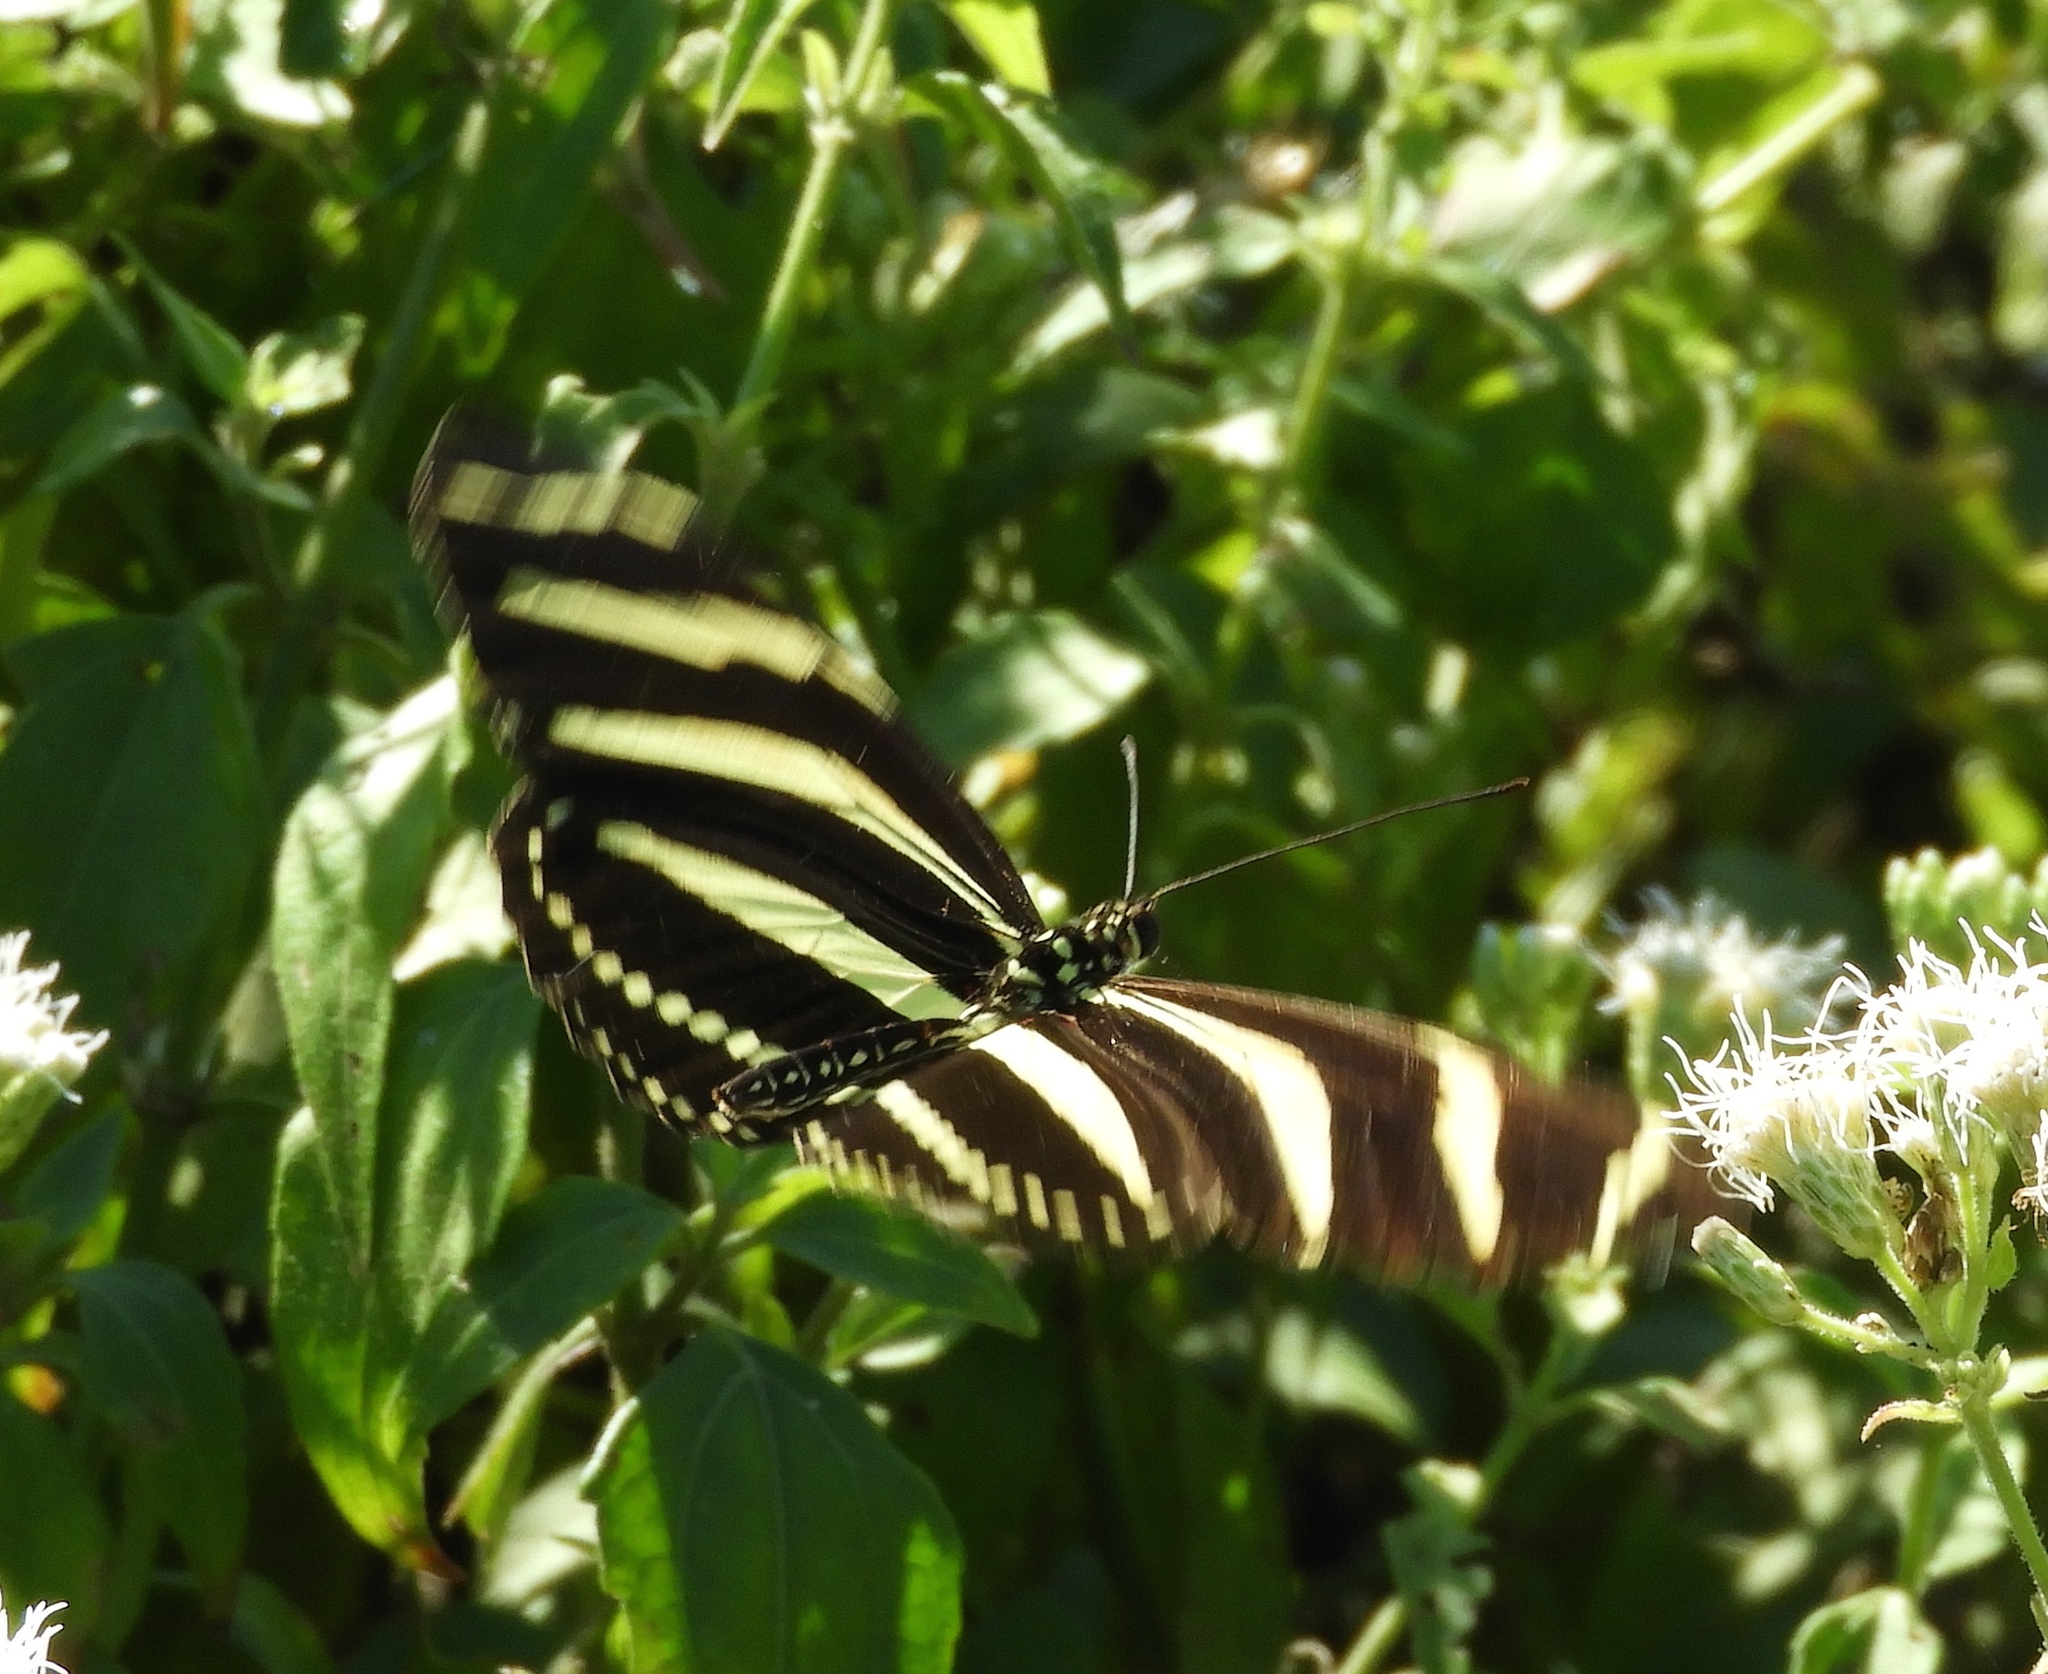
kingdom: Animalia
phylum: Arthropoda
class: Insecta
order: Lepidoptera
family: Nymphalidae
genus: Heliconius
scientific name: Heliconius charithonia
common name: Zebra long wing
